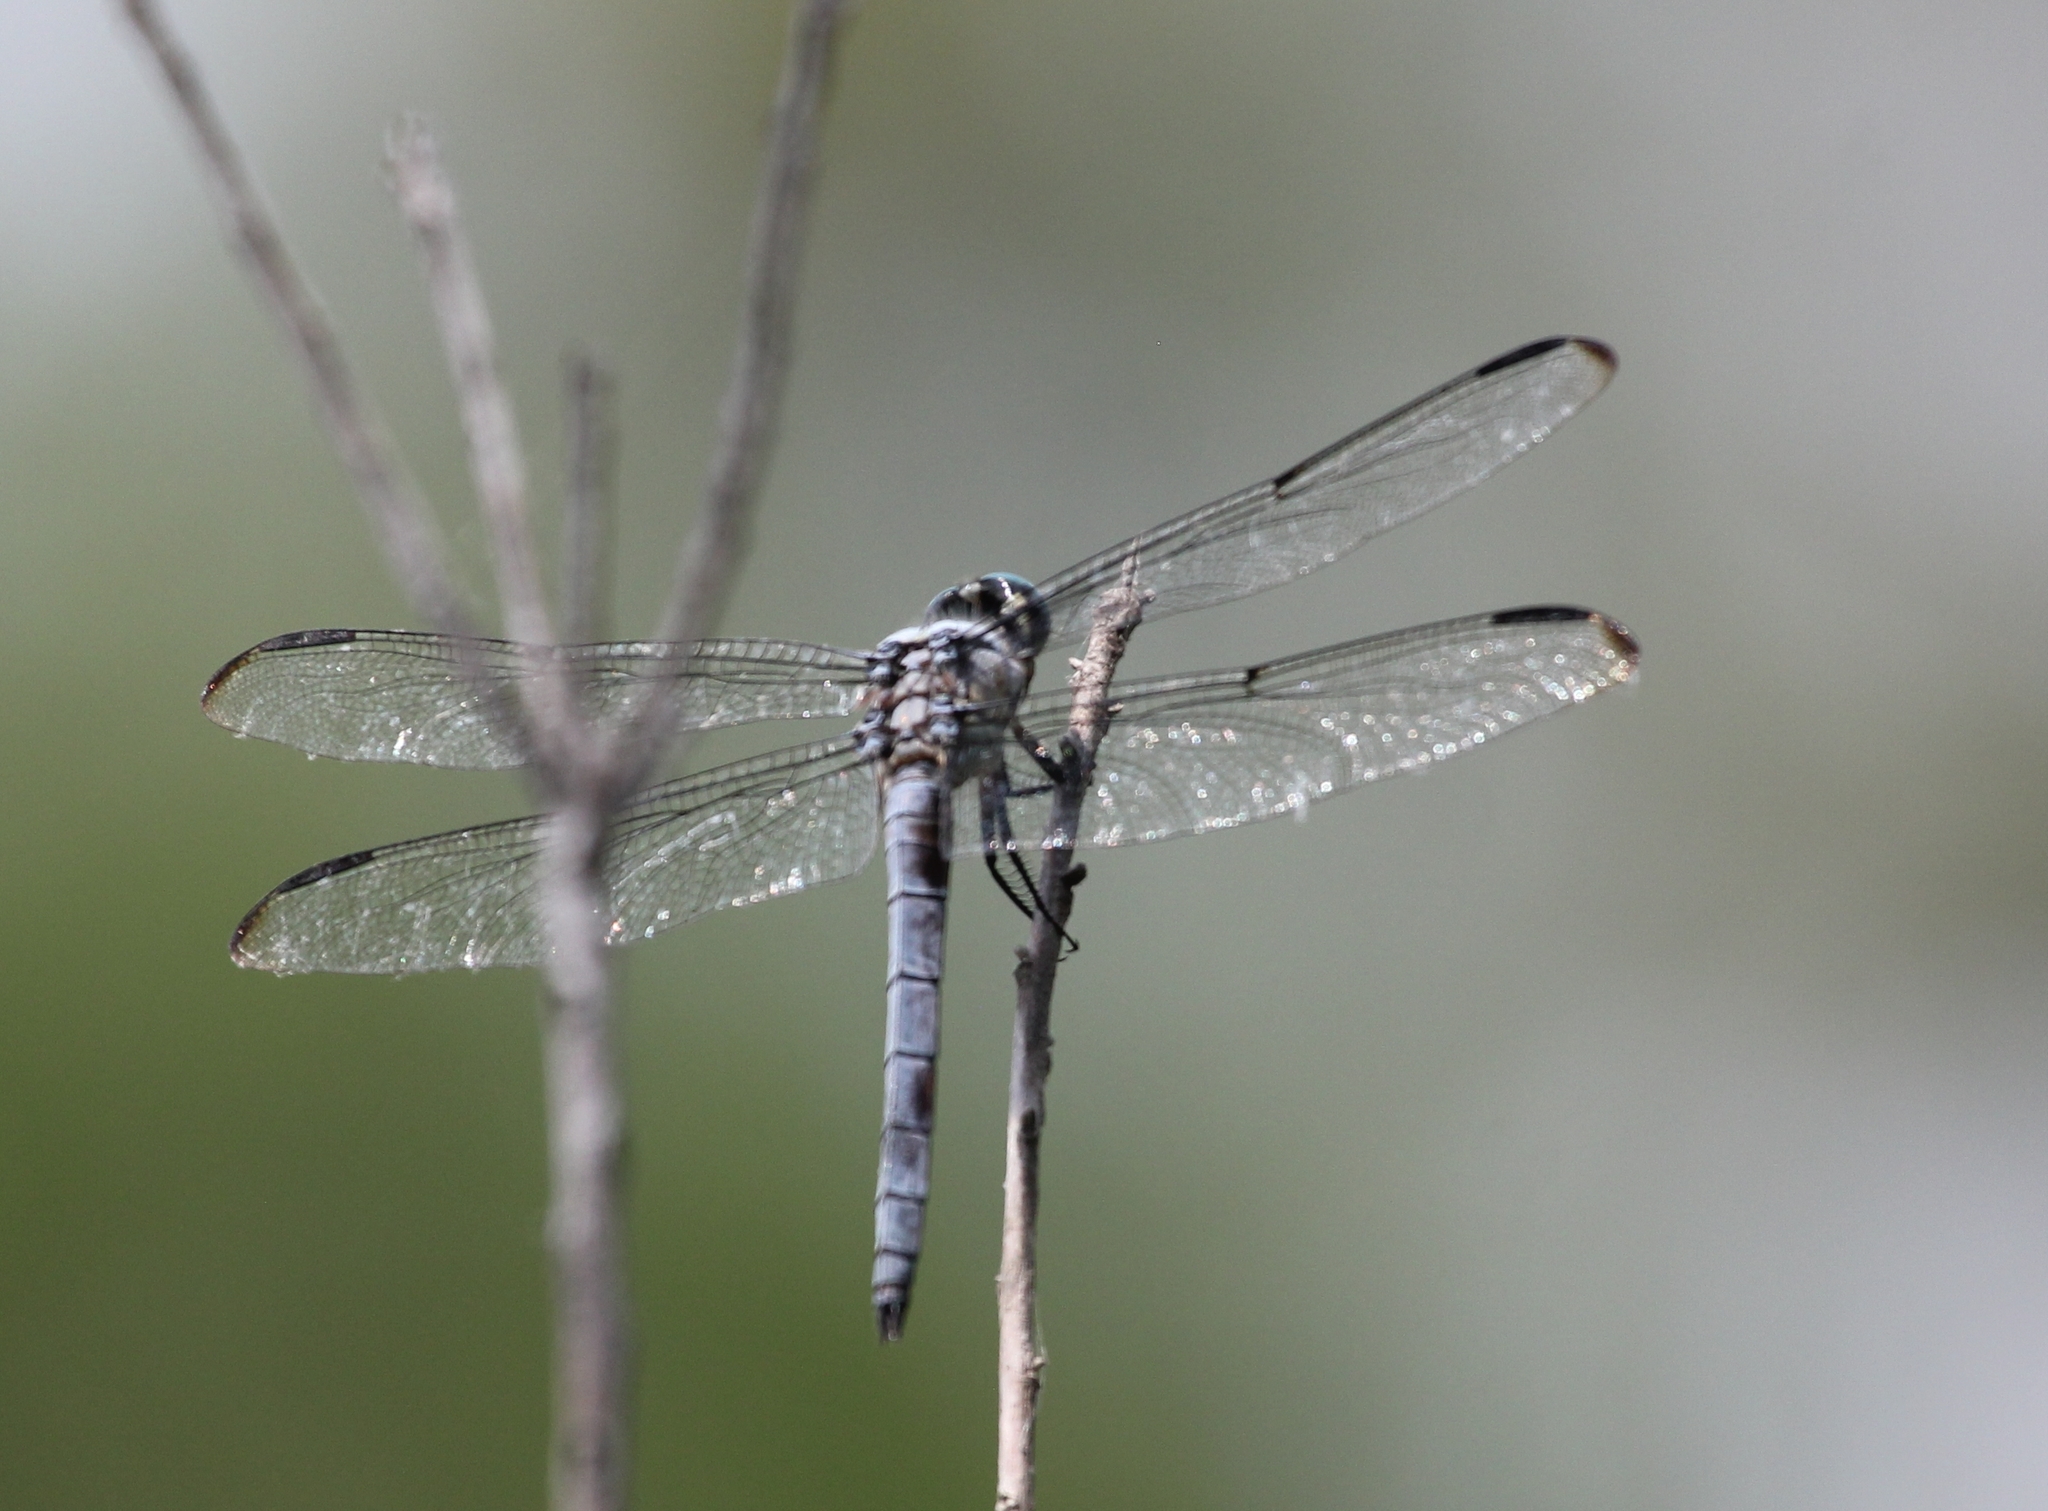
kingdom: Animalia
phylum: Arthropoda
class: Insecta
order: Odonata
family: Libellulidae
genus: Libellula
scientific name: Libellula vibrans
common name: Great blue skimmer
